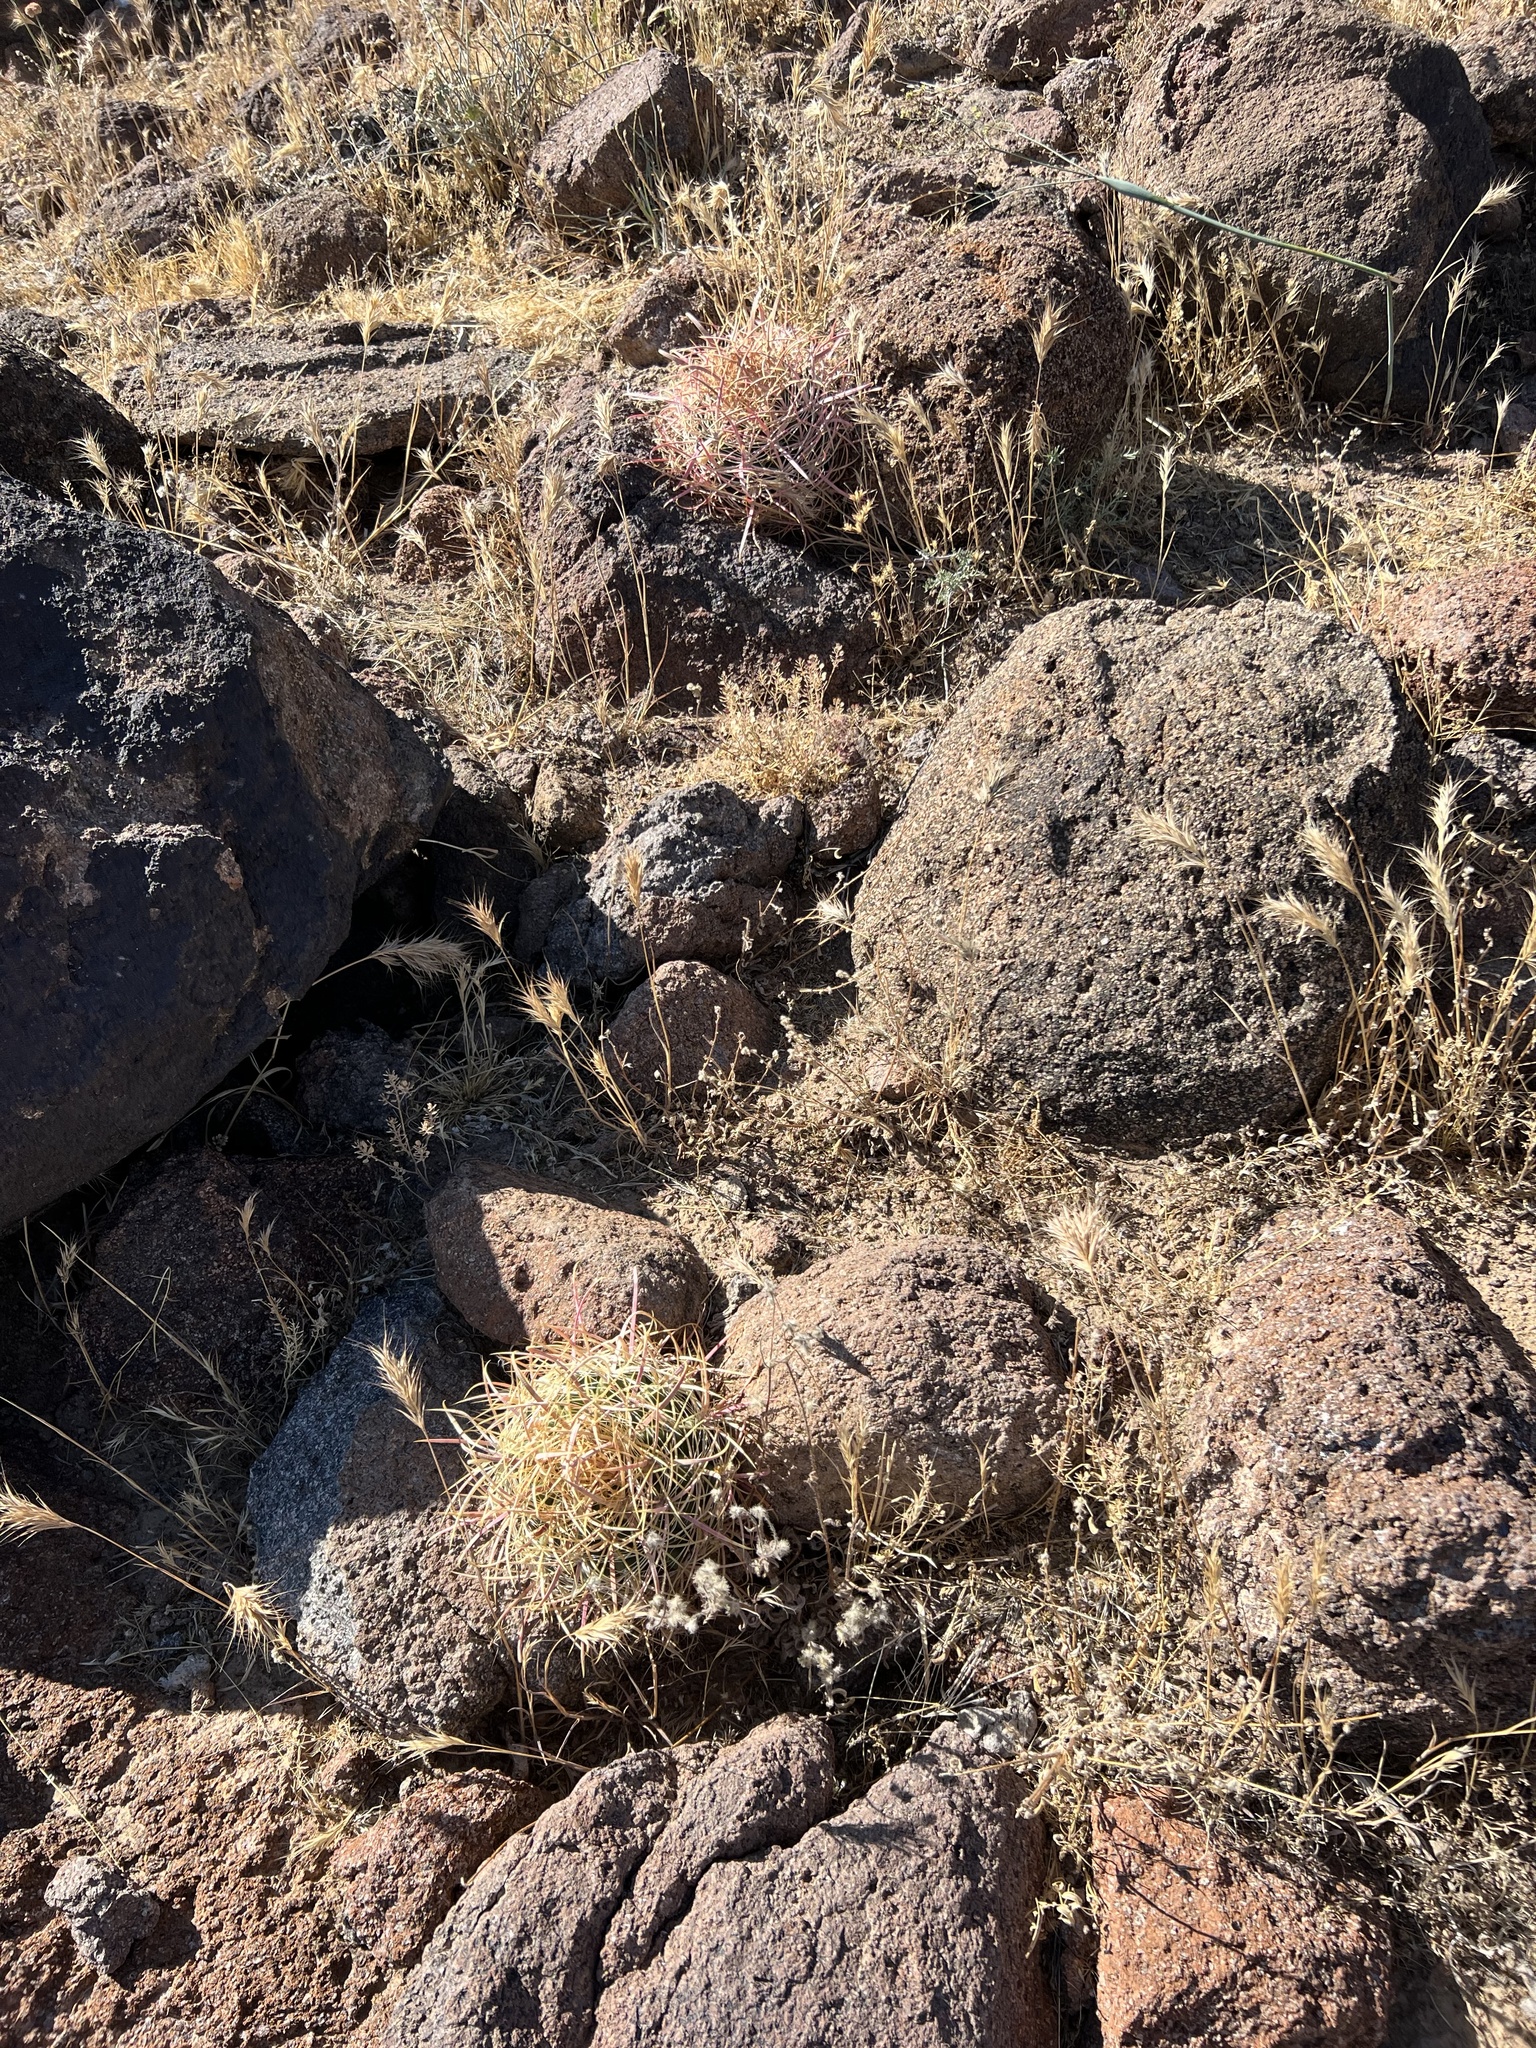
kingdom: Plantae
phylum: Tracheophyta
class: Magnoliopsida
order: Caryophyllales
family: Cactaceae
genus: Ferocactus
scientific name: Ferocactus cylindraceus
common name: California barrel cactus
